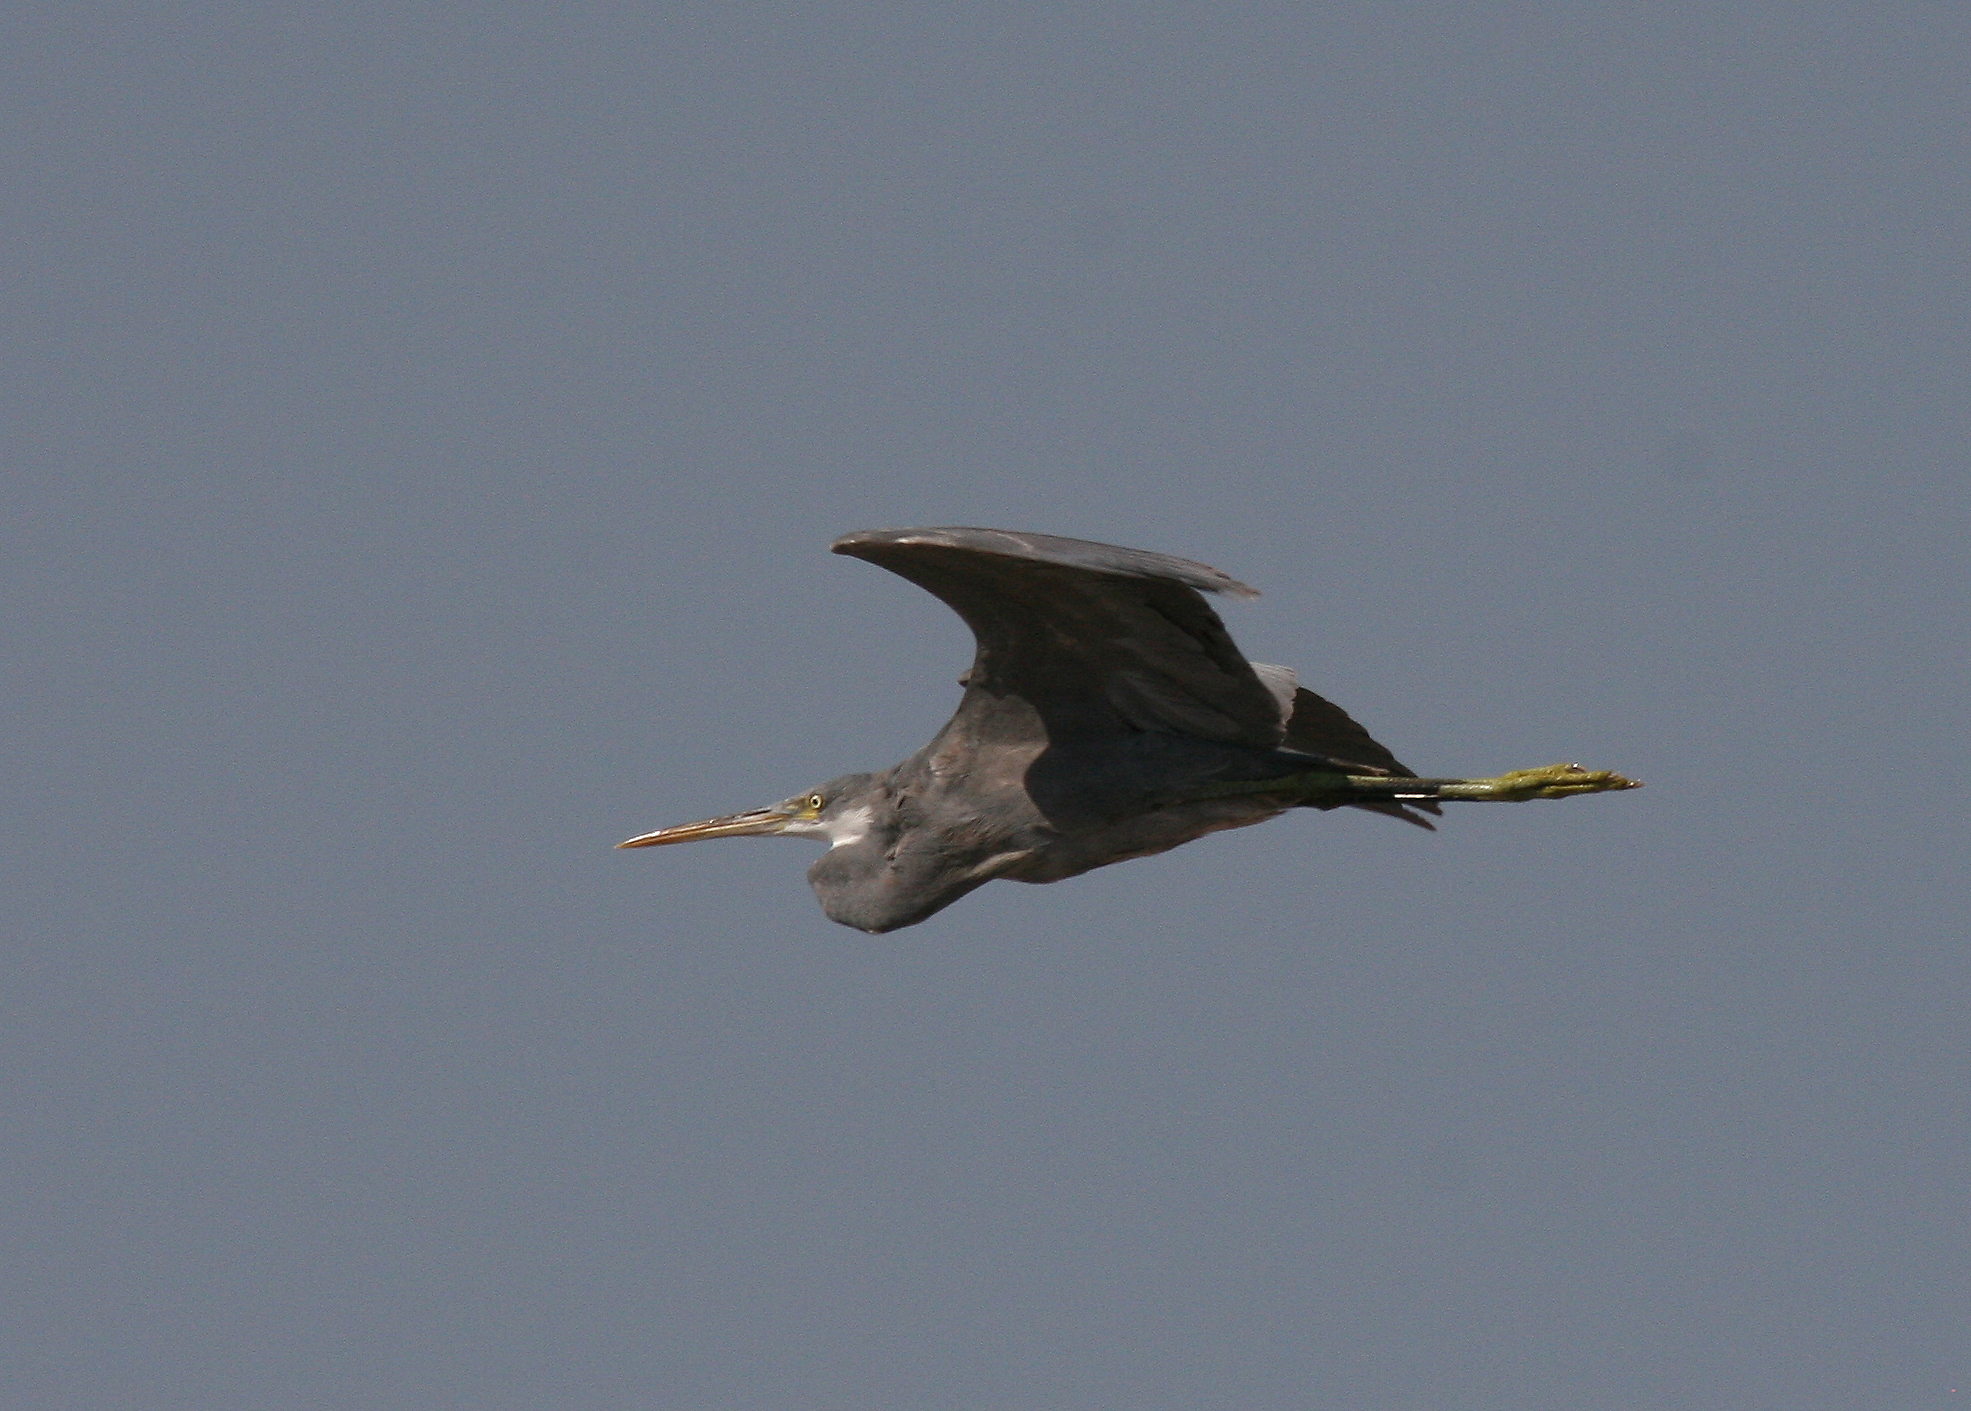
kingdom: Animalia
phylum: Chordata
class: Aves
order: Pelecaniformes
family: Ardeidae
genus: Egretta
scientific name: Egretta gularis
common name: Western reef-heron
